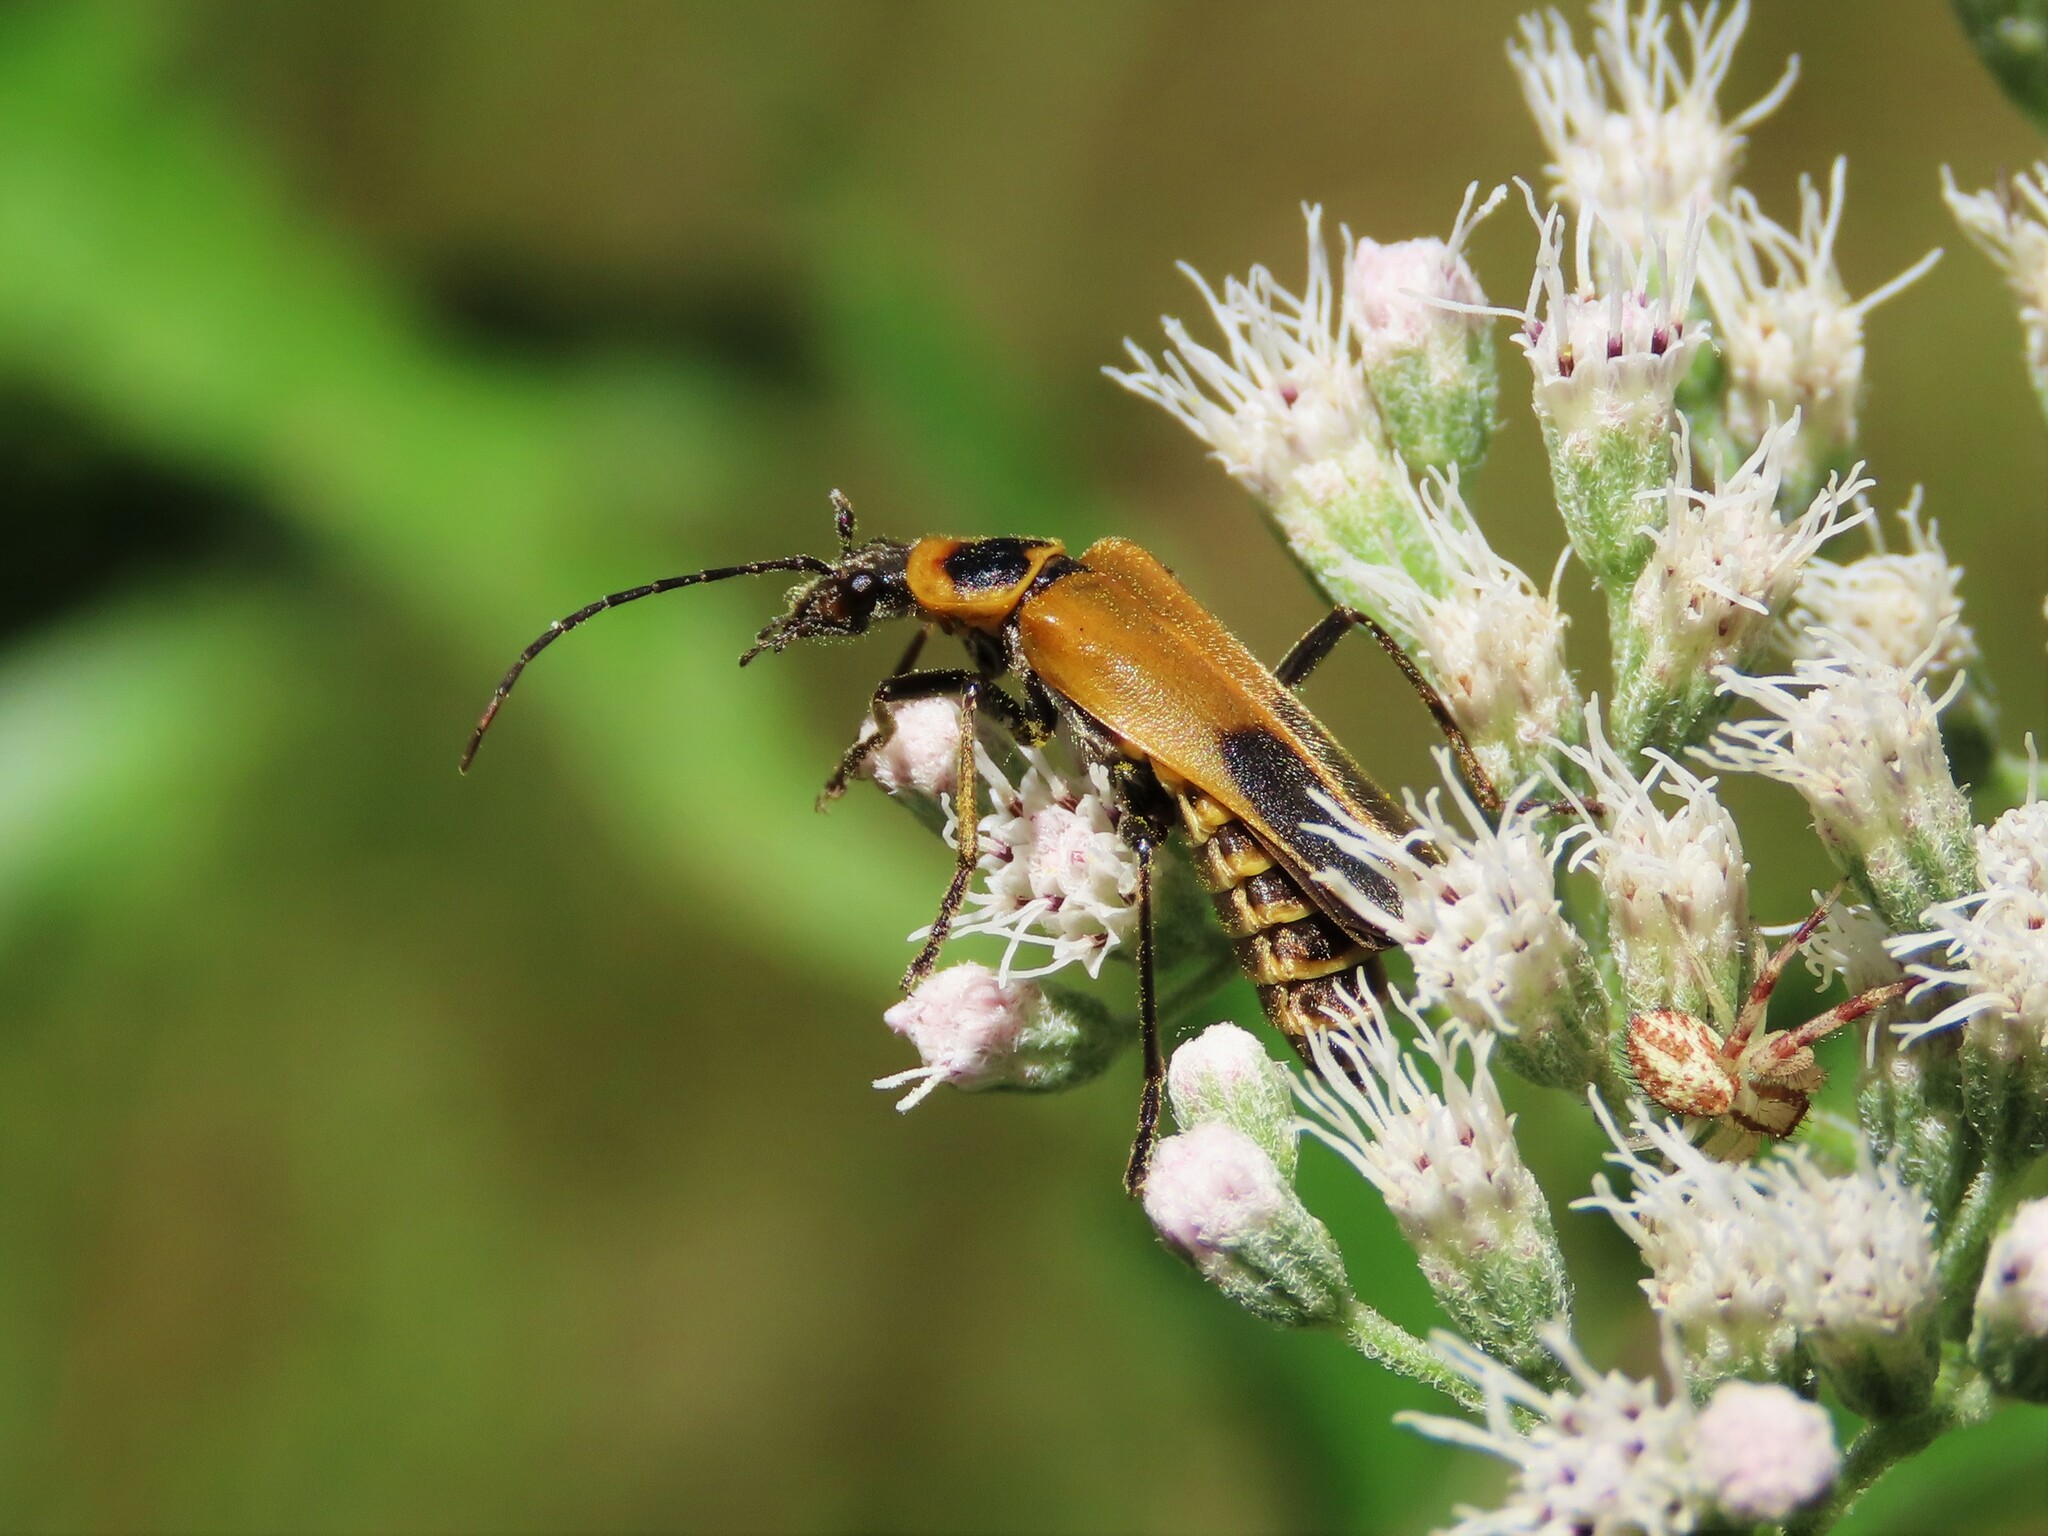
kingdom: Animalia
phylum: Arthropoda
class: Insecta
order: Coleoptera
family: Cantharidae
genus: Chauliognathus
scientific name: Chauliognathus pensylvanicus
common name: Goldenrod soldier beetle
